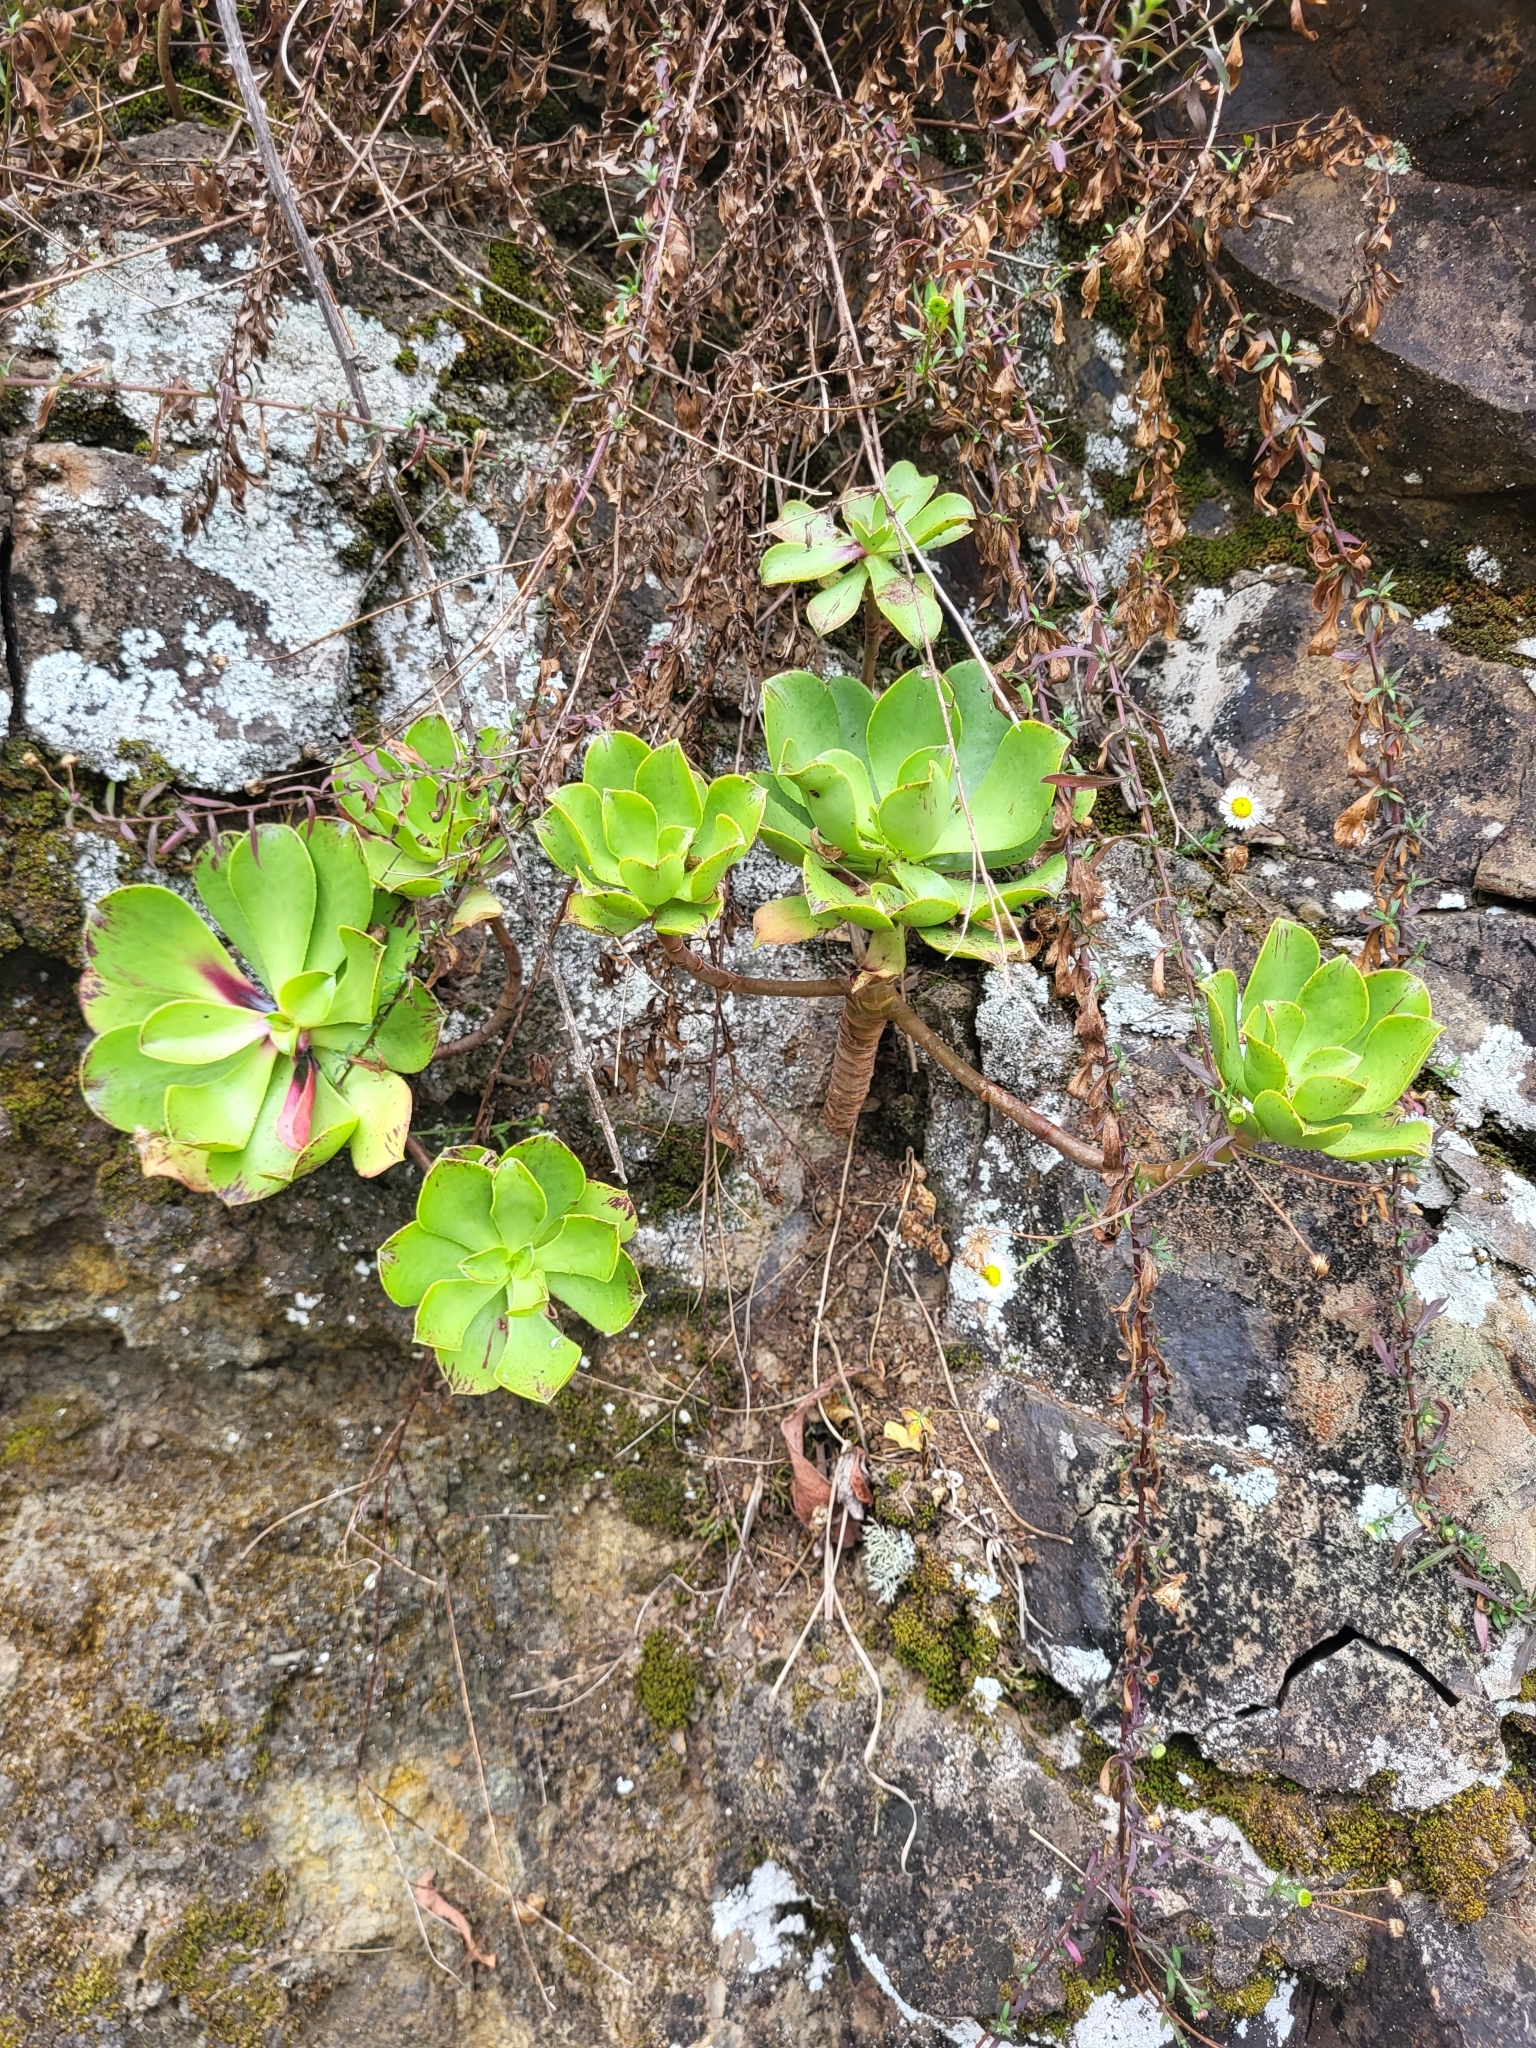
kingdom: Plantae
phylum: Tracheophyta
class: Magnoliopsida
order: Saxifragales
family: Crassulaceae
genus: Aeonium
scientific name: Aeonium glutinosum
